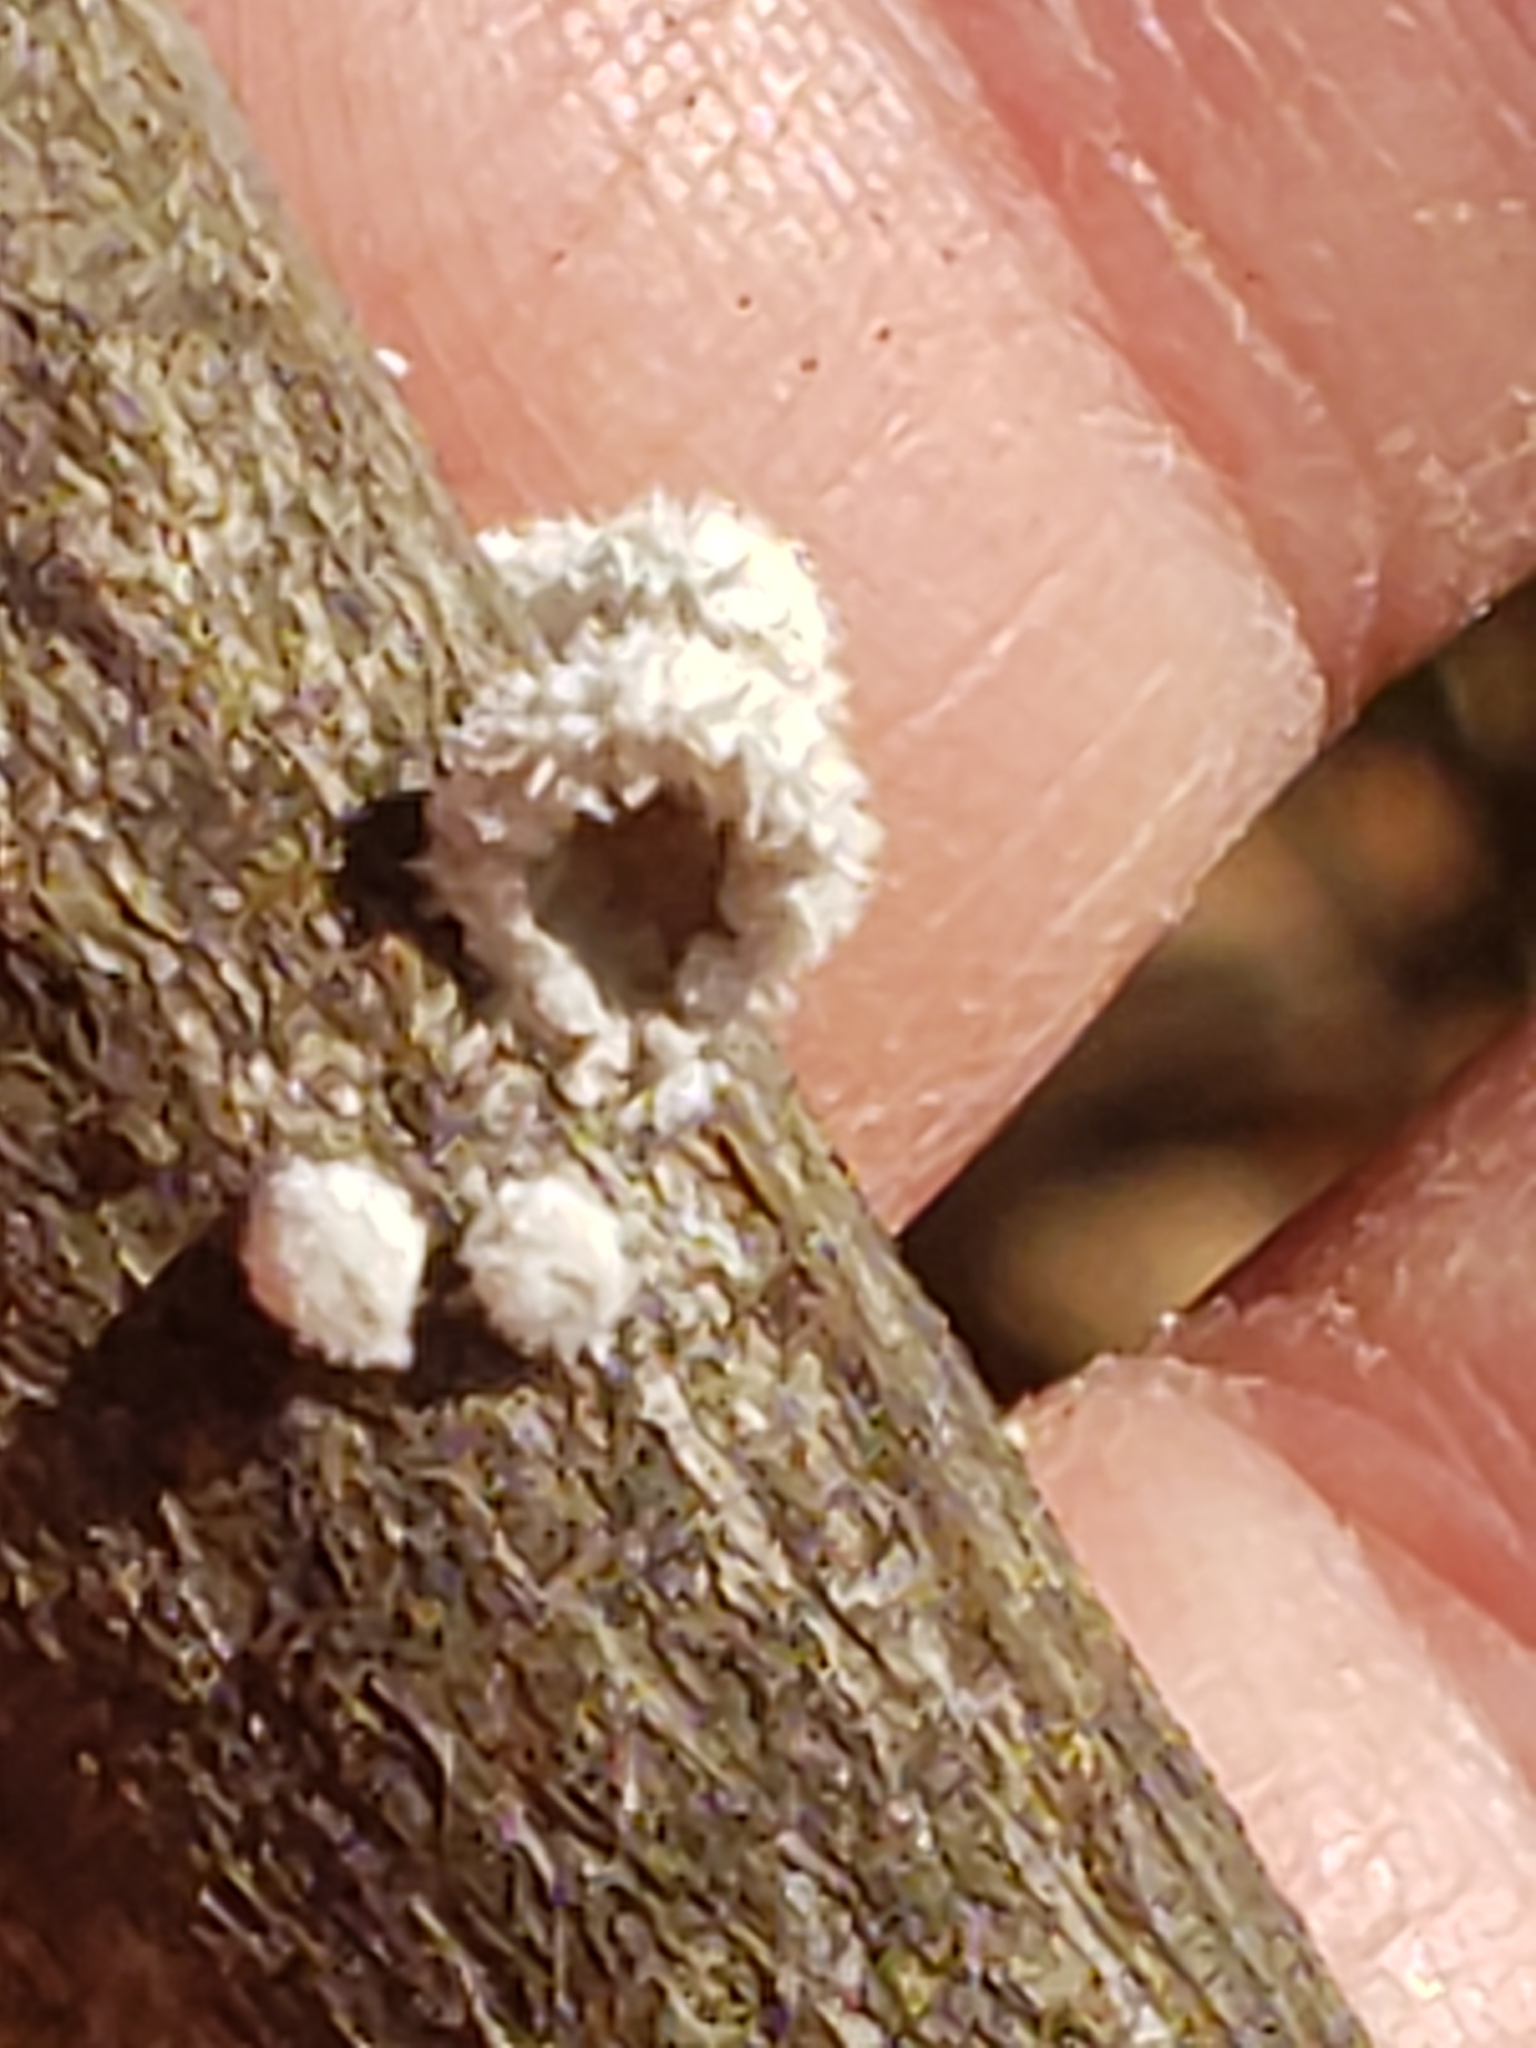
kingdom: Fungi
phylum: Basidiomycota
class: Agaricomycetes
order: Agaricales
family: Schizophyllaceae
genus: Schizophyllum
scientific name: Schizophyllum commune
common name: Common porecrust
